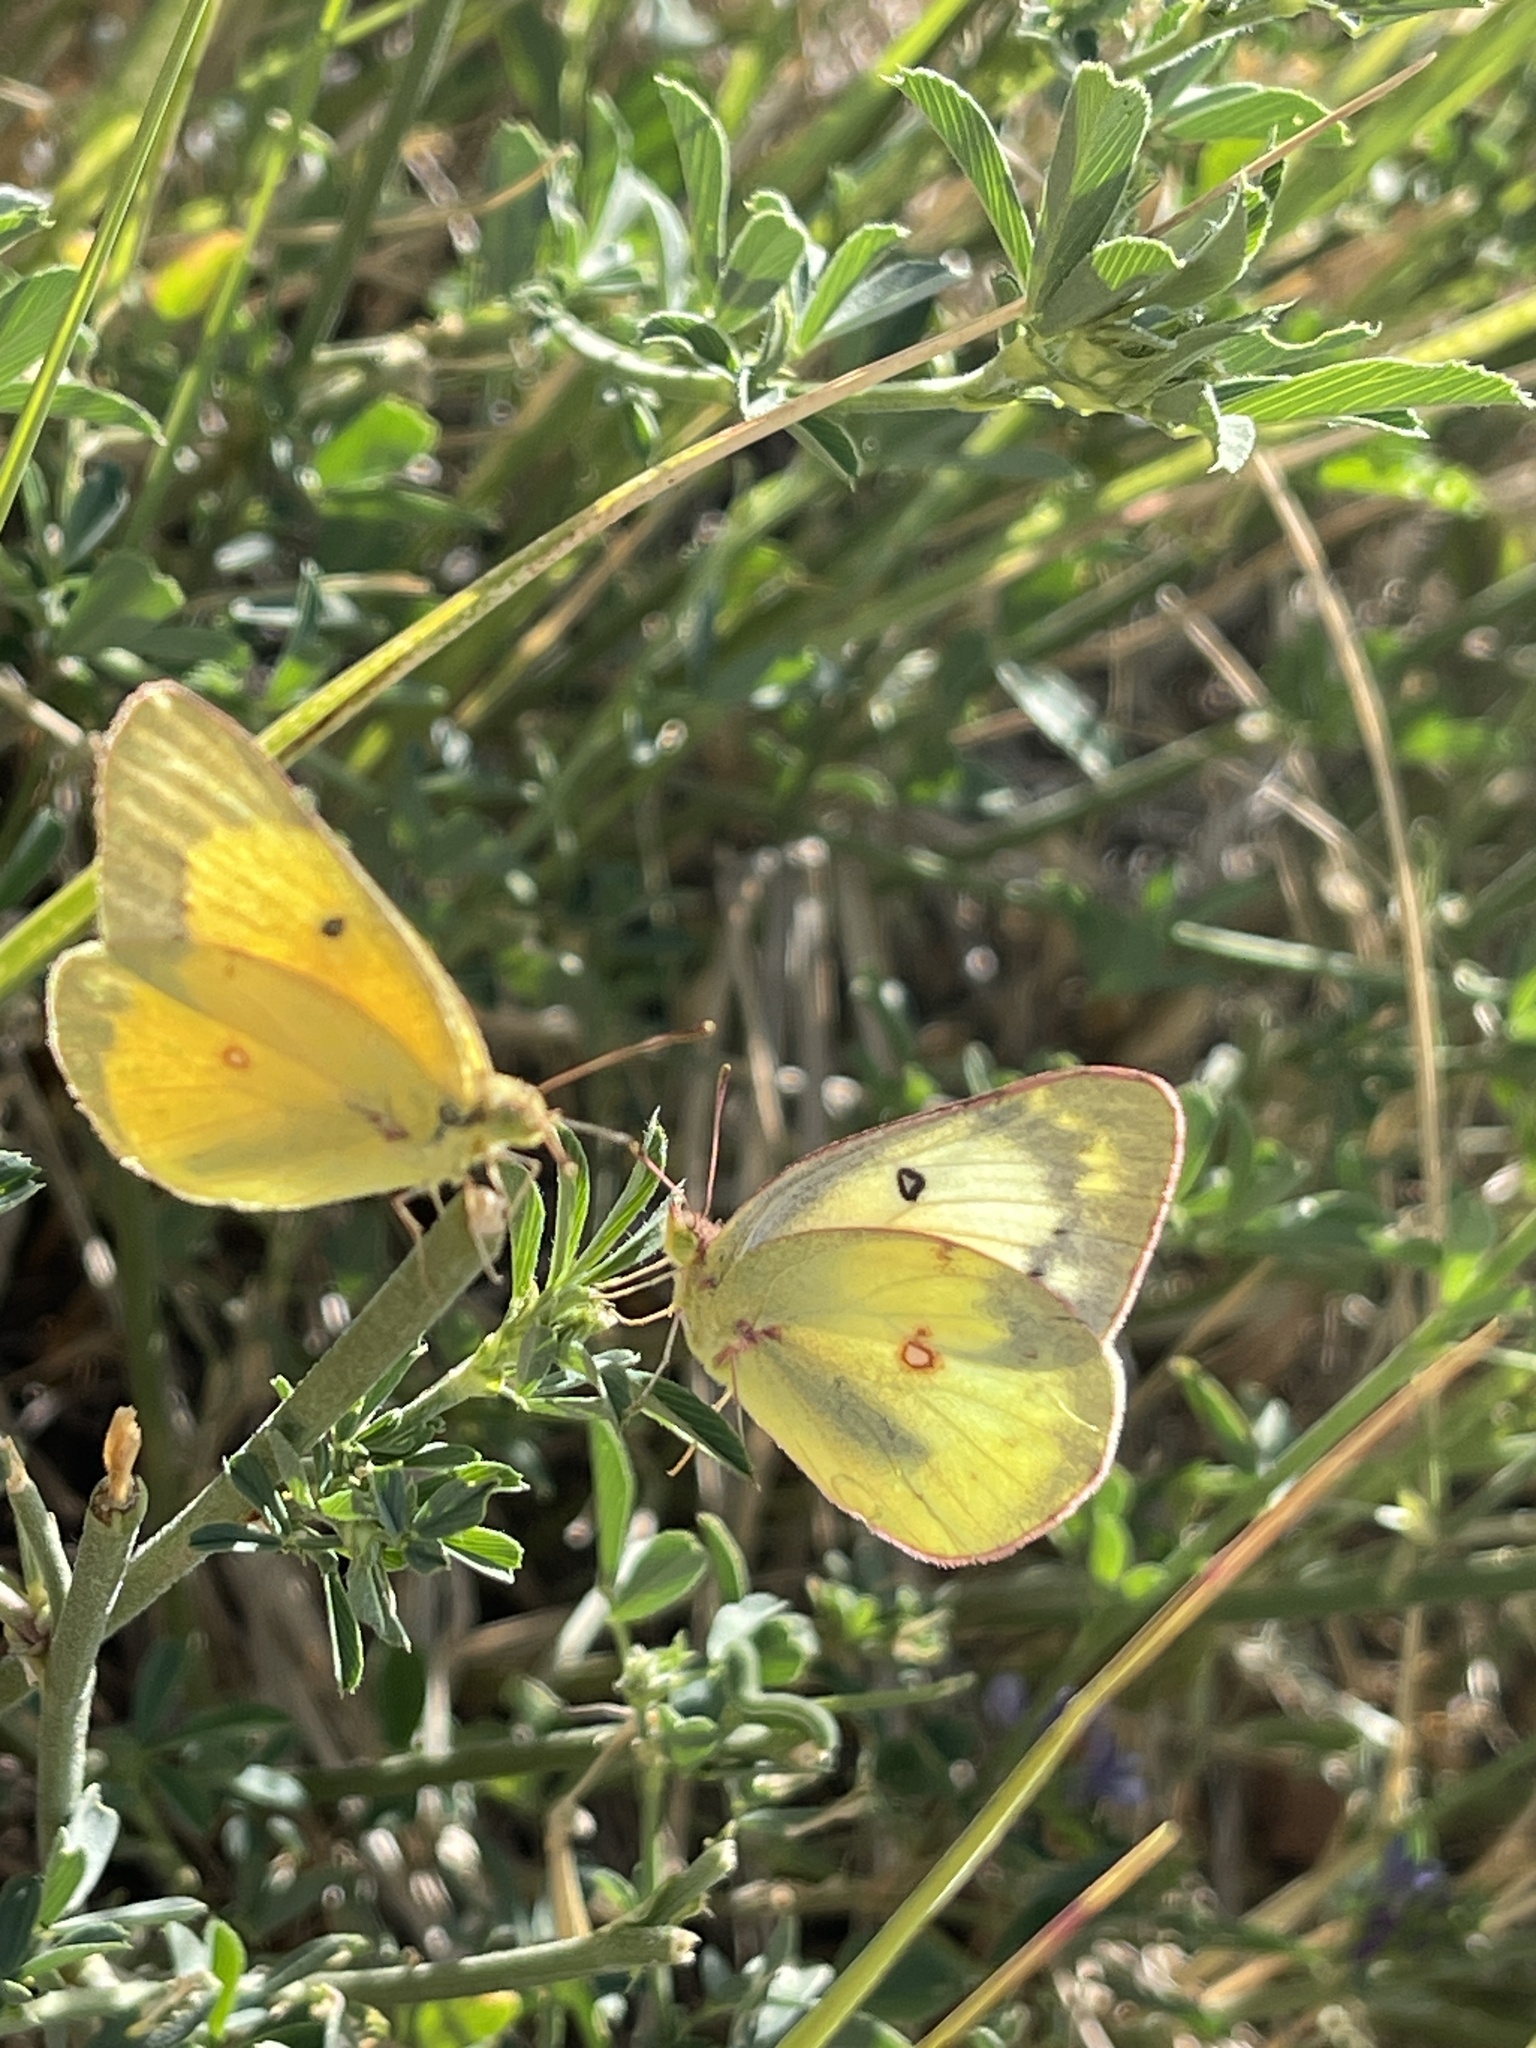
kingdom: Animalia
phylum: Arthropoda
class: Insecta
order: Lepidoptera
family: Pieridae
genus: Colias
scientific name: Colias eurytheme
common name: Alfalfa butterfly
